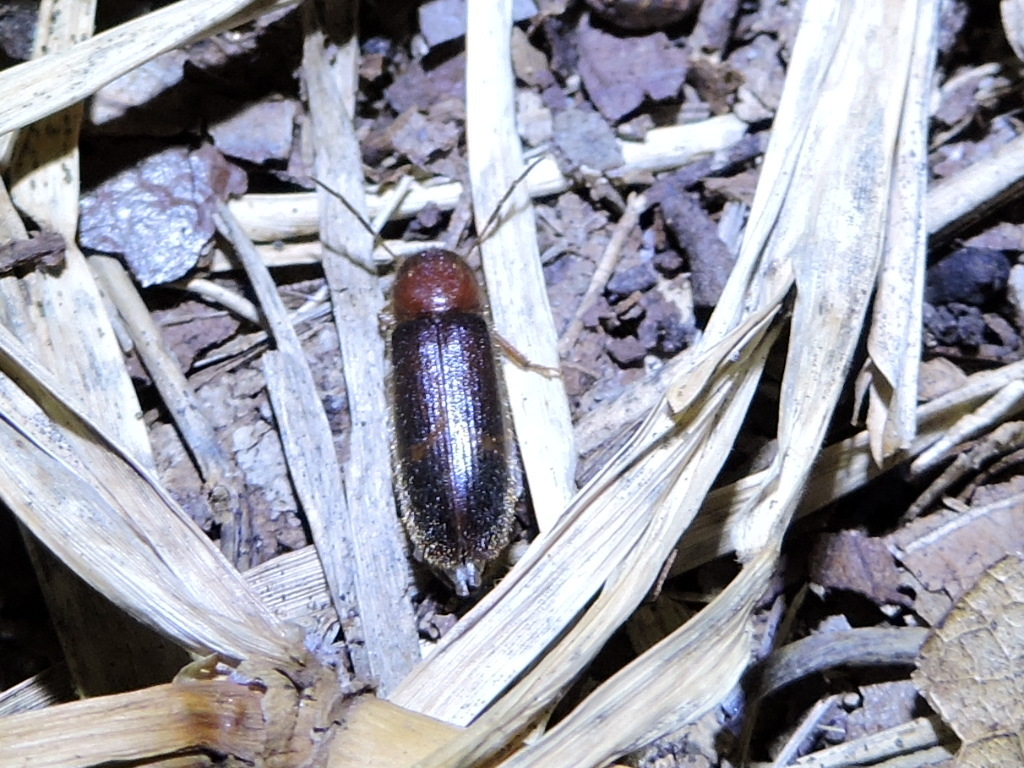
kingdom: Animalia
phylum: Arthropoda
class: Insecta
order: Coleoptera
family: Cleridae
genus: Neorthopleura
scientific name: Neorthopleura texana
